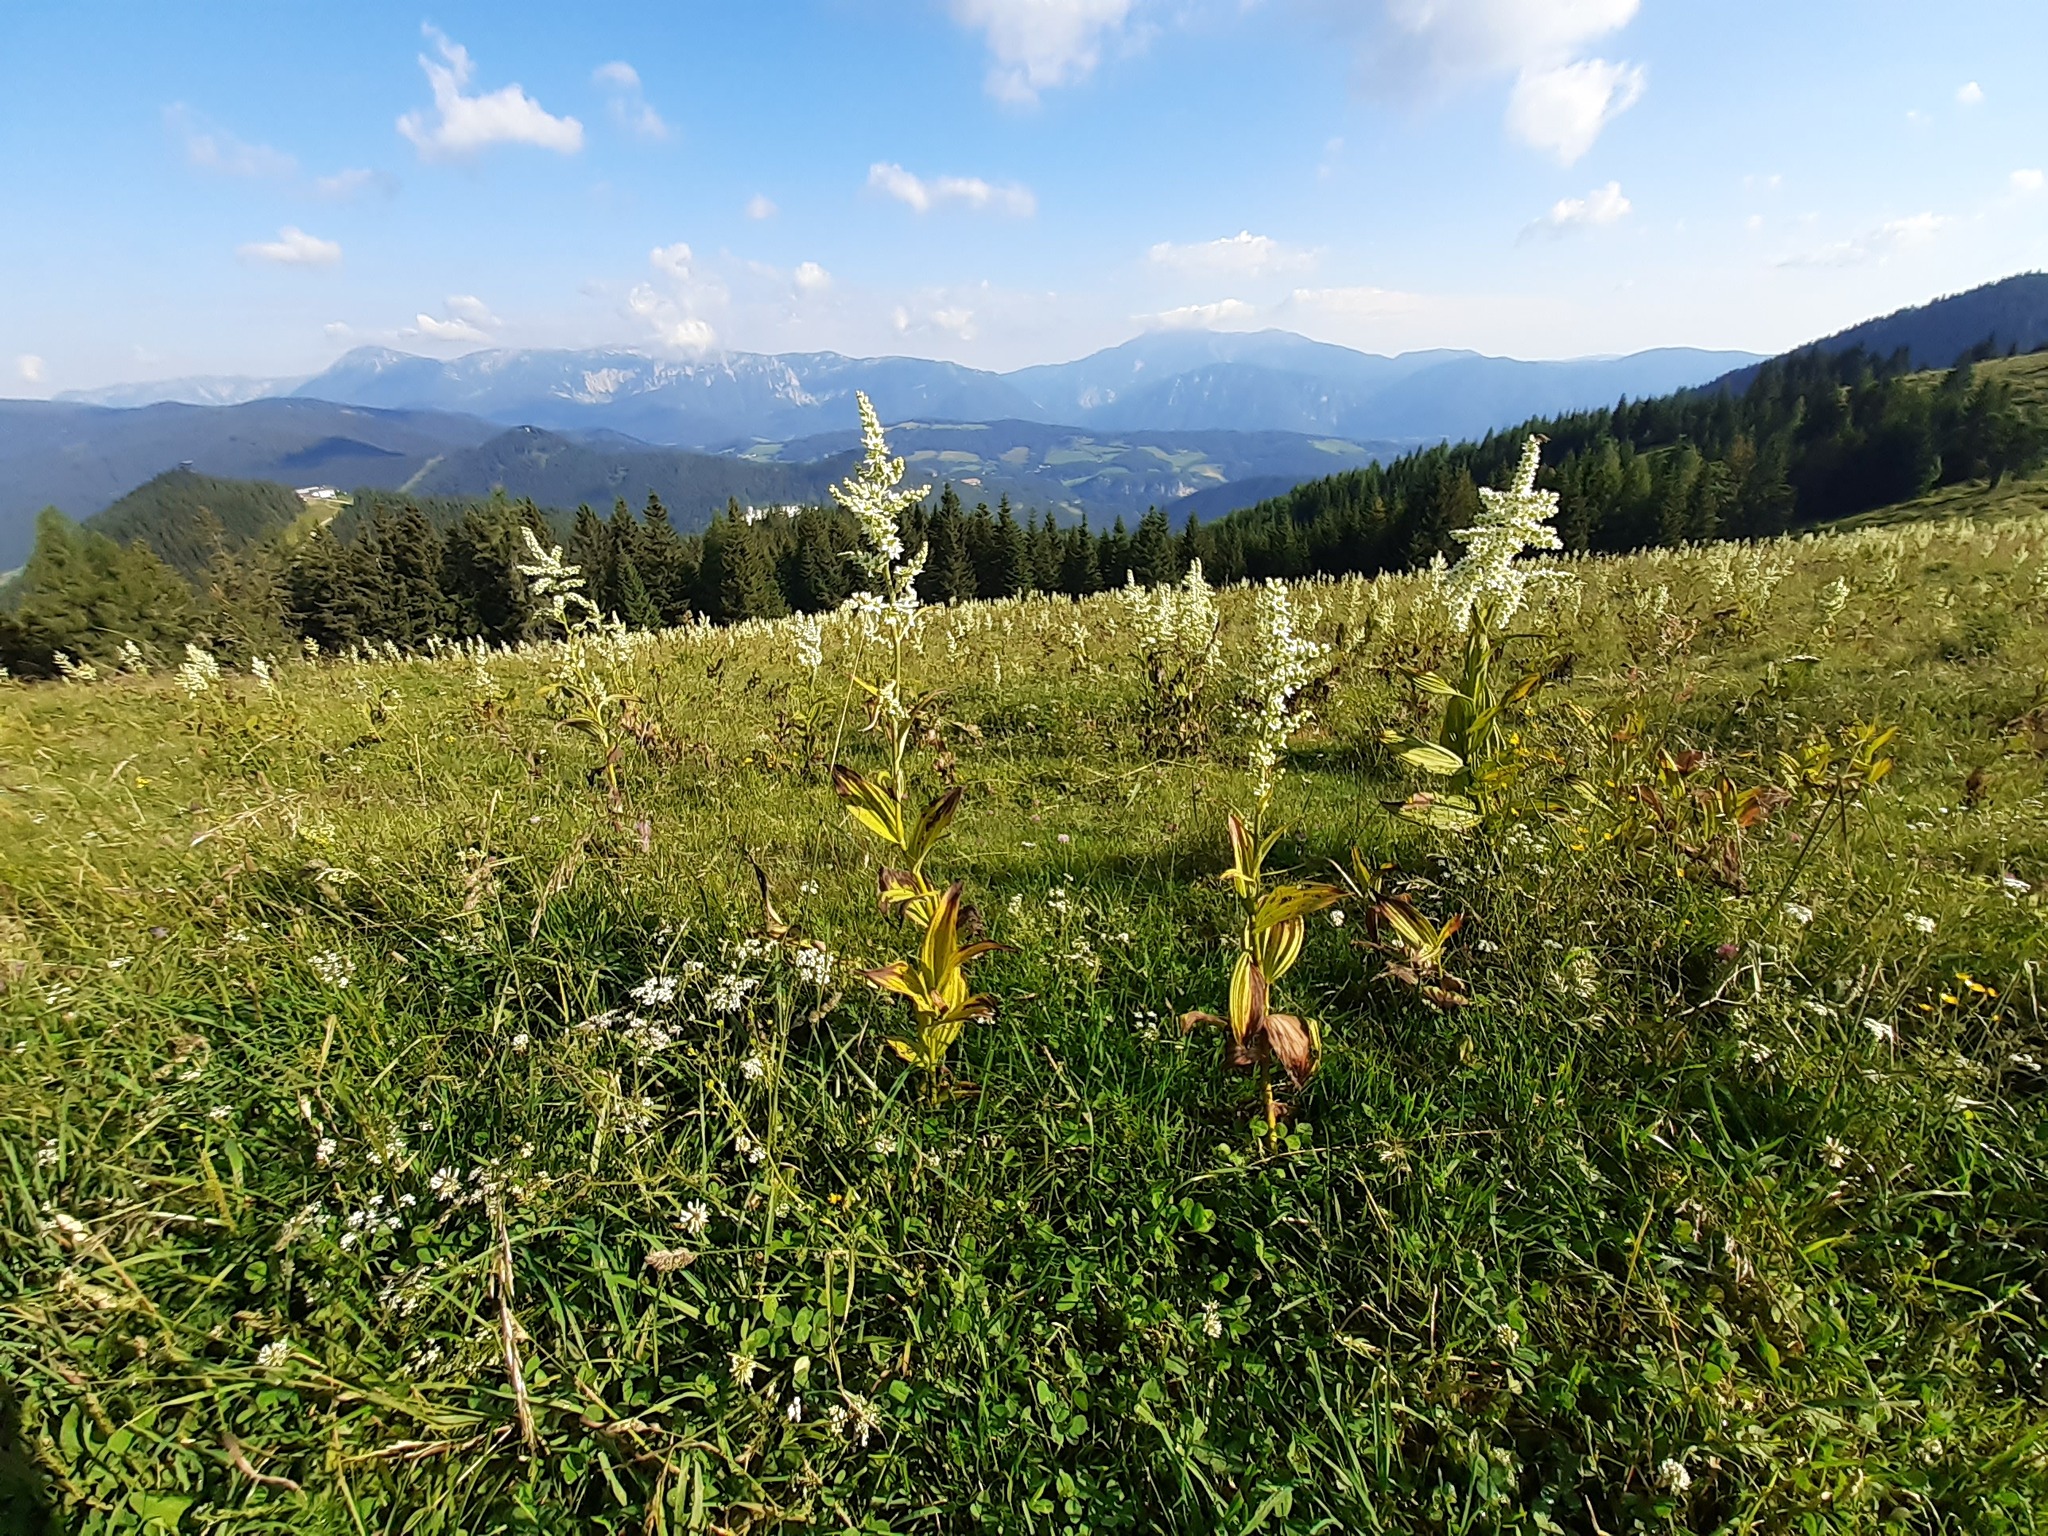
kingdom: Plantae
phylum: Tracheophyta
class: Liliopsida
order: Liliales
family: Melanthiaceae
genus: Veratrum
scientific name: Veratrum album
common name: White veratrum
